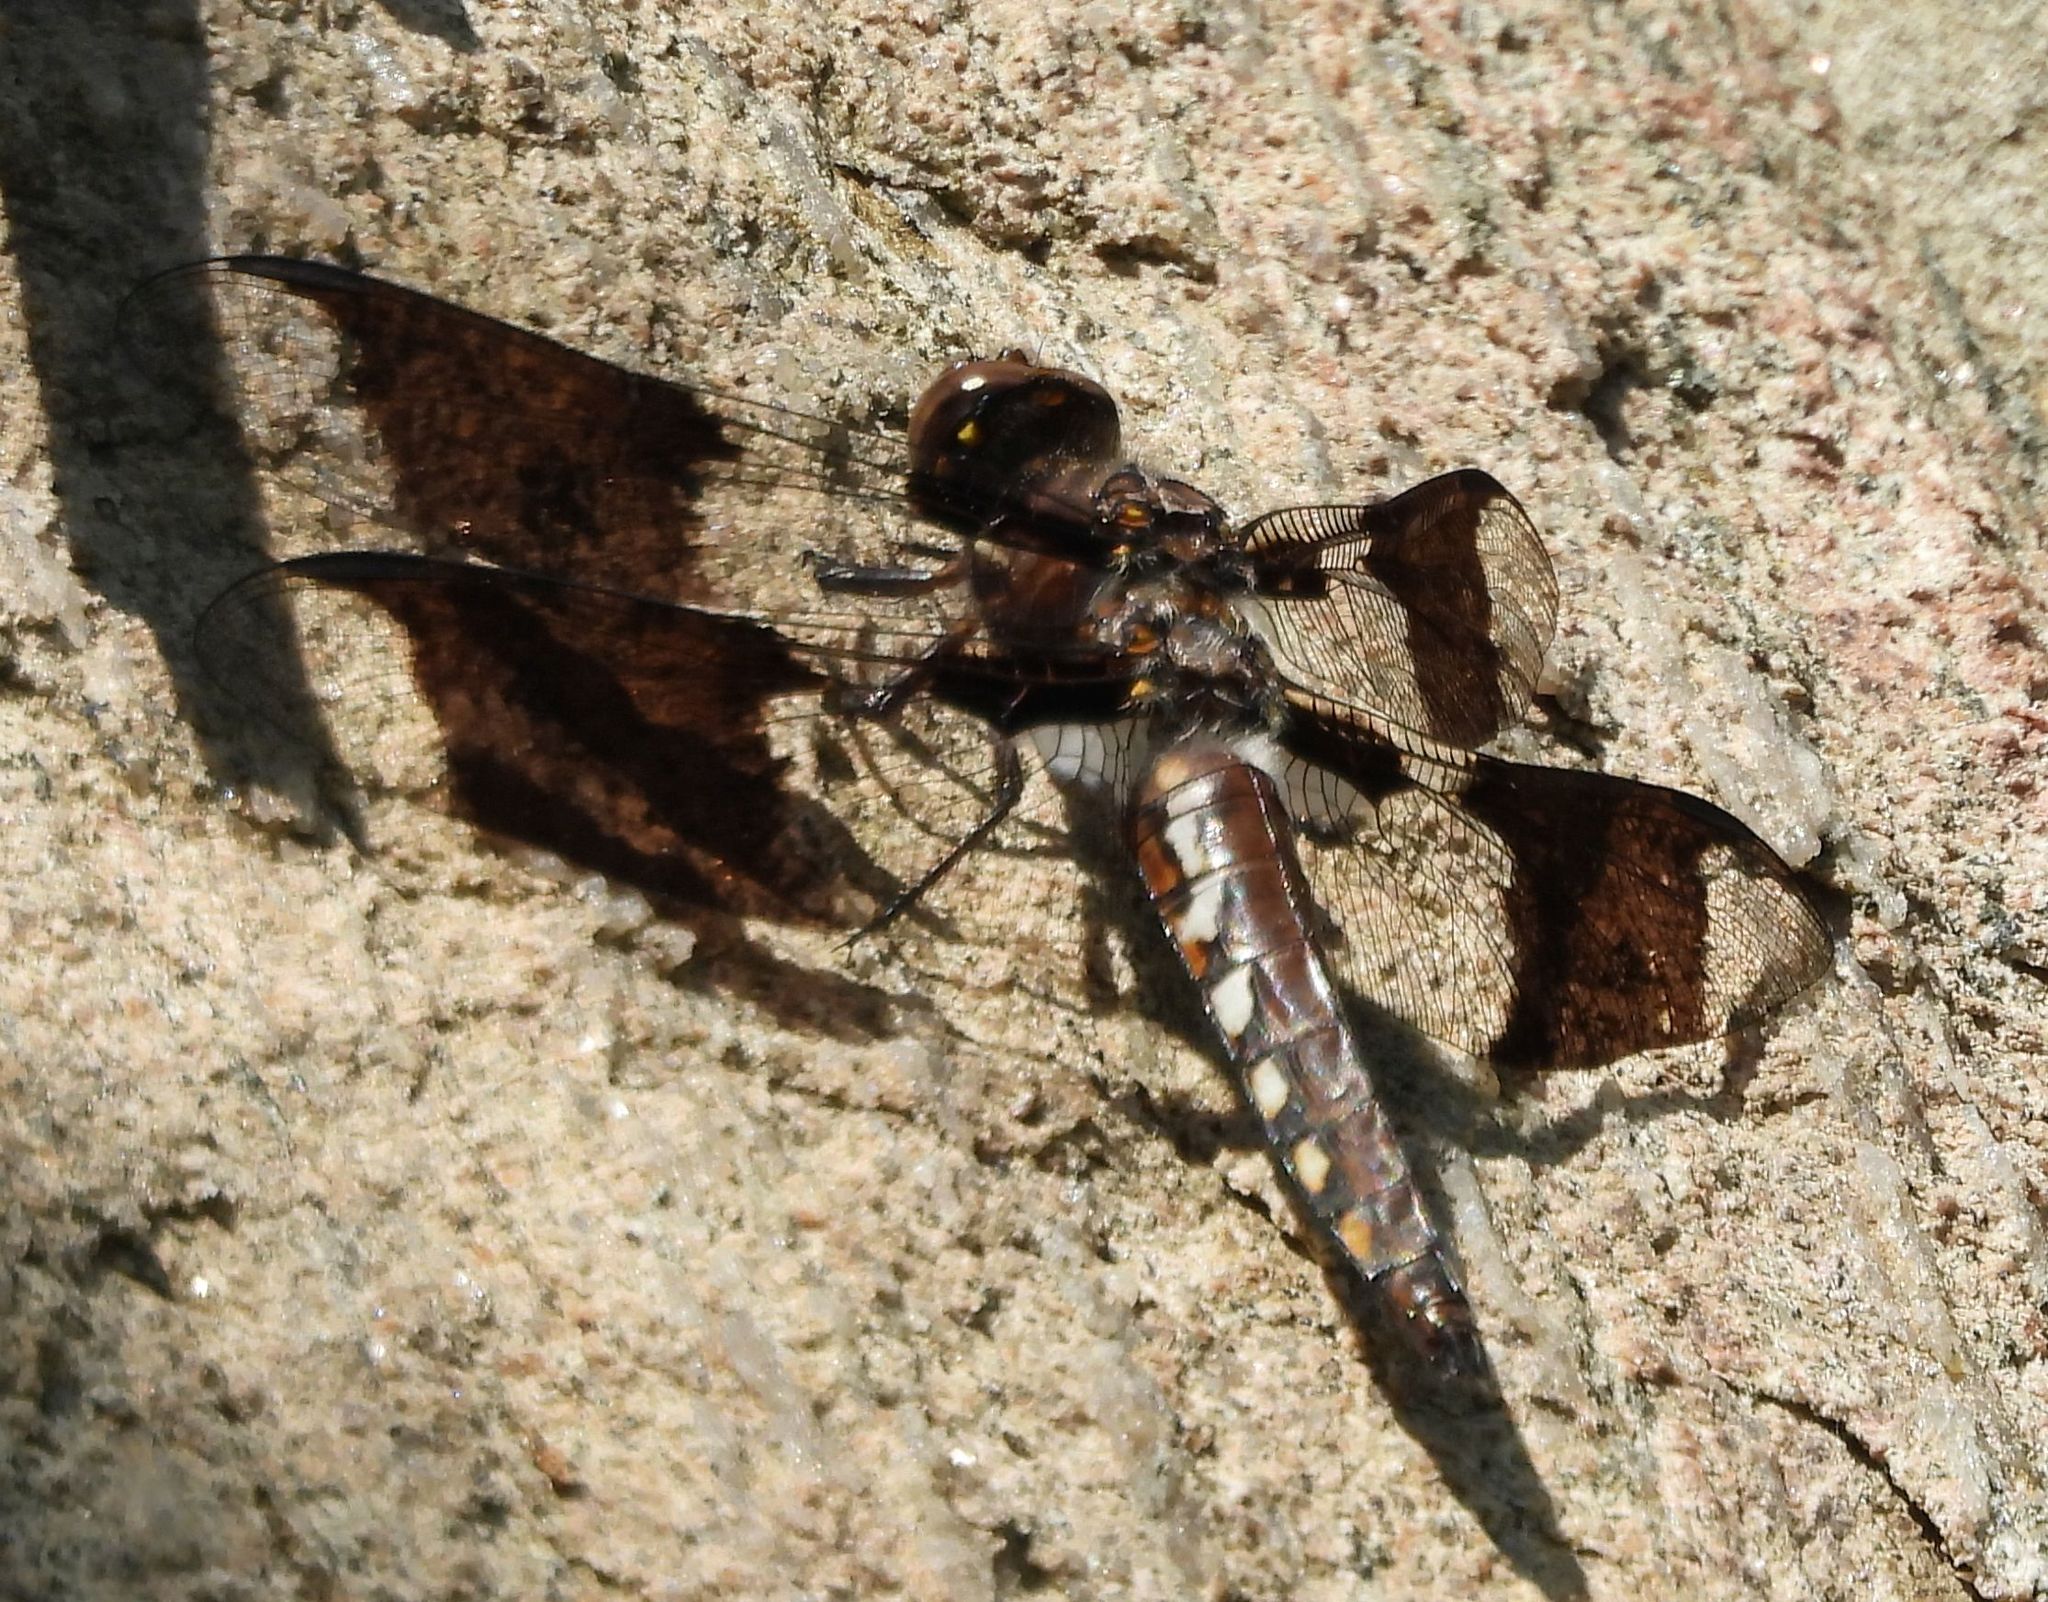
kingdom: Animalia
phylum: Arthropoda
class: Insecta
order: Odonata
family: Libellulidae
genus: Plathemis
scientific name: Plathemis lydia
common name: Common whitetail
